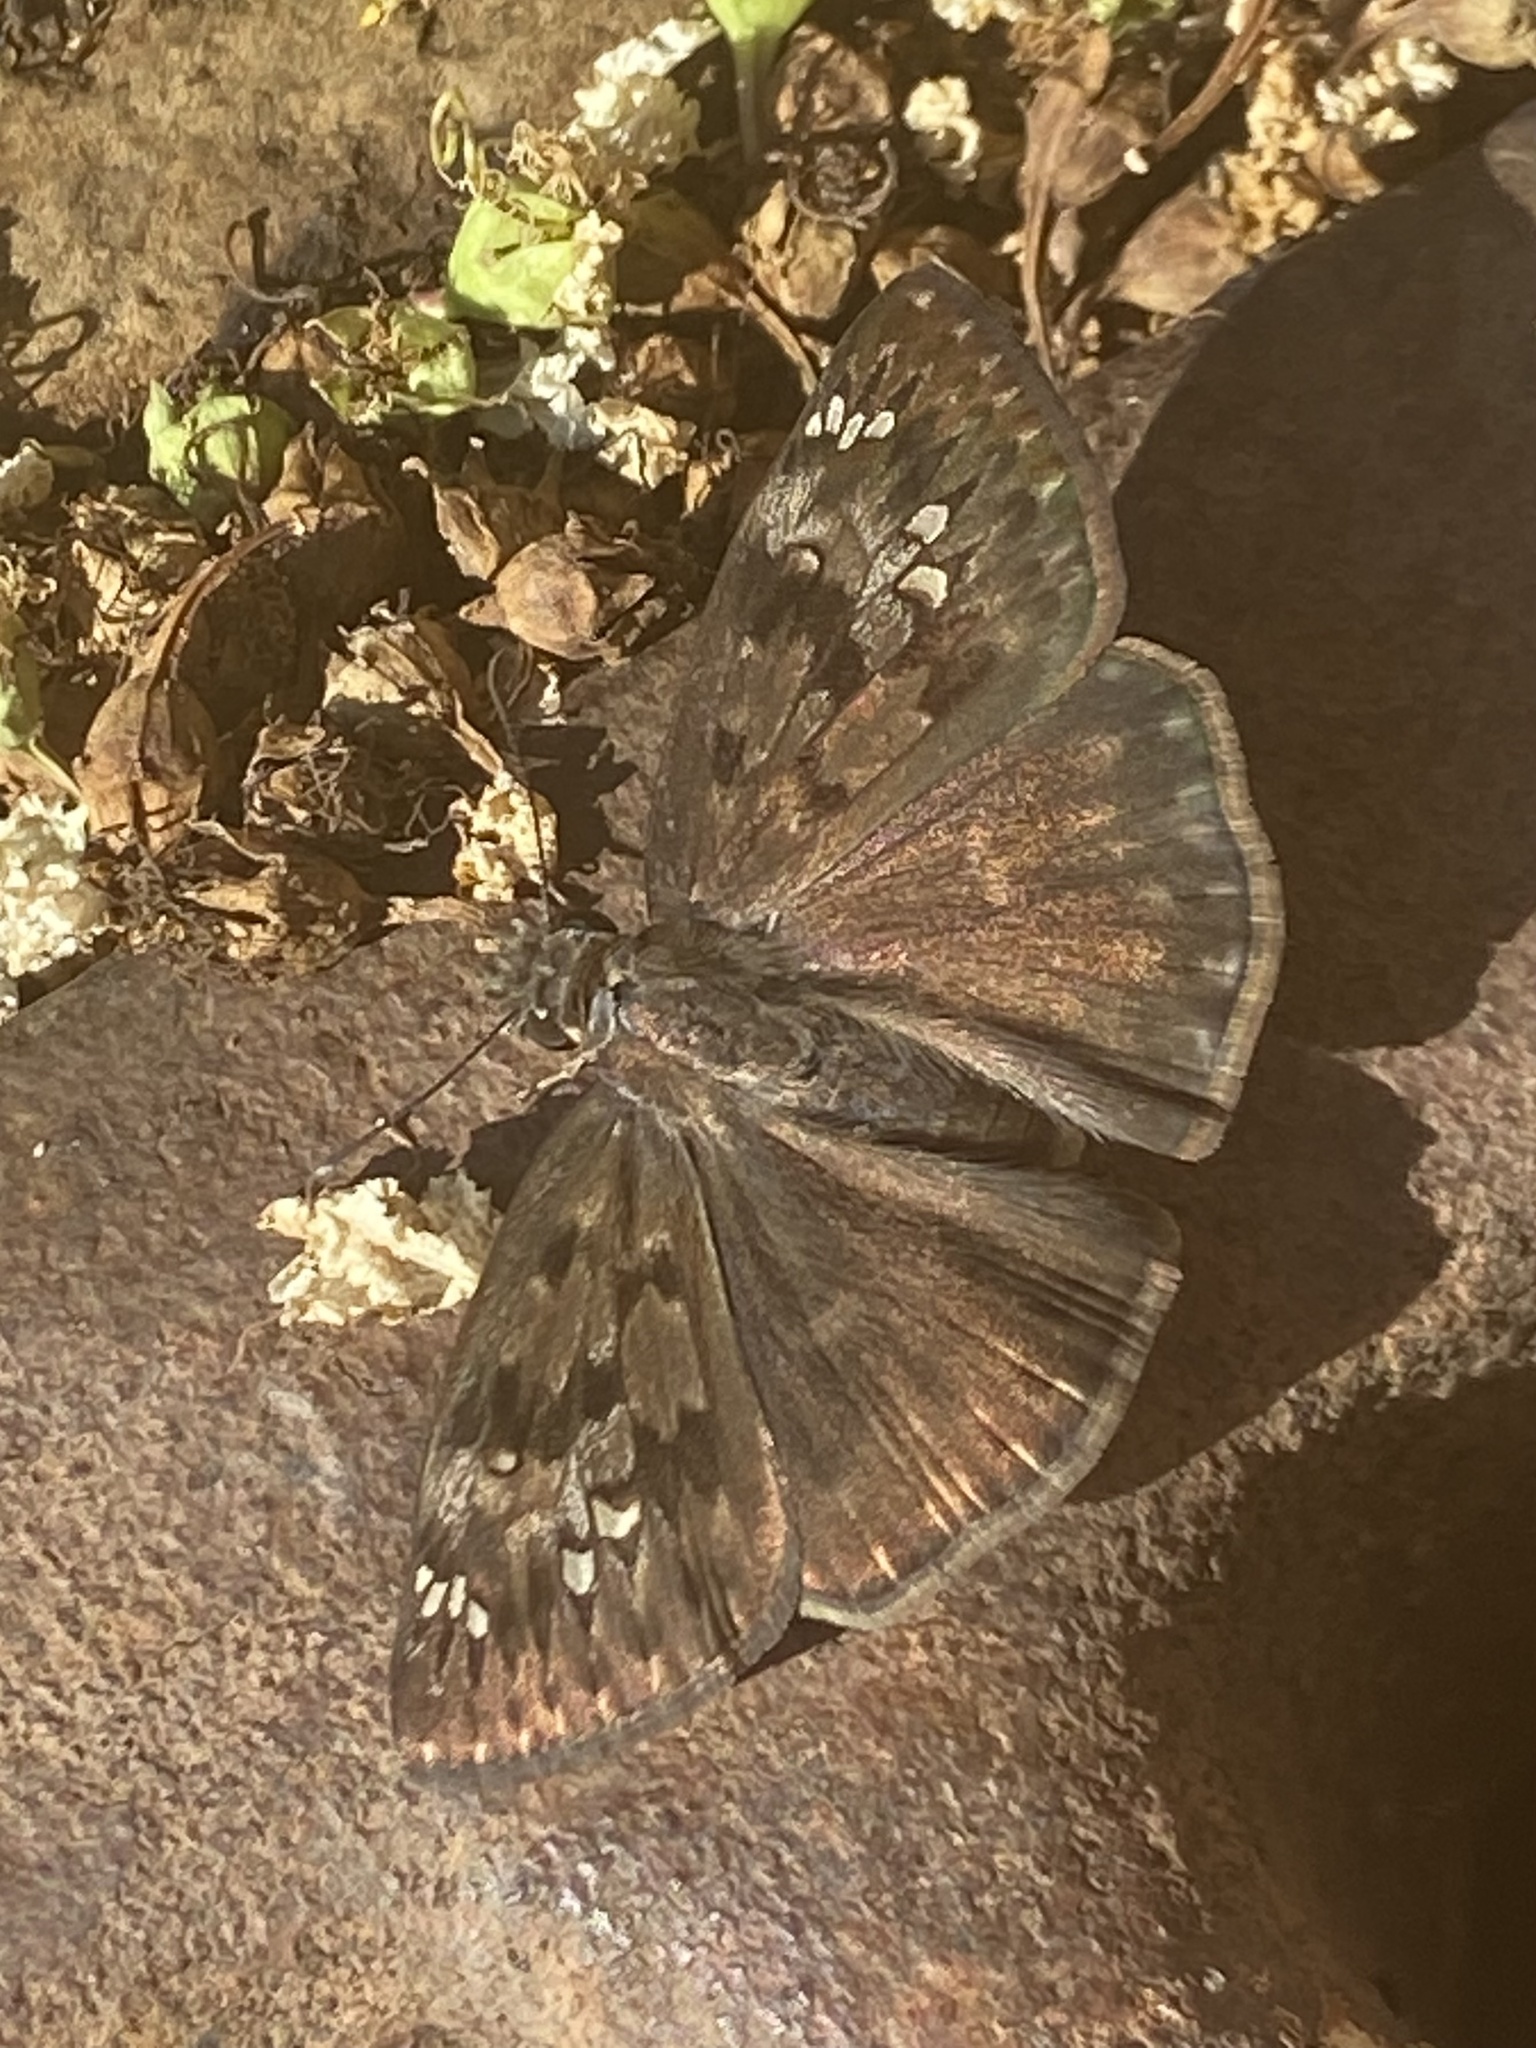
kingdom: Animalia
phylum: Arthropoda
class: Insecta
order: Lepidoptera
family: Hesperiidae
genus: Erynnis
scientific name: Erynnis horatius
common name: Horace's duskywing
